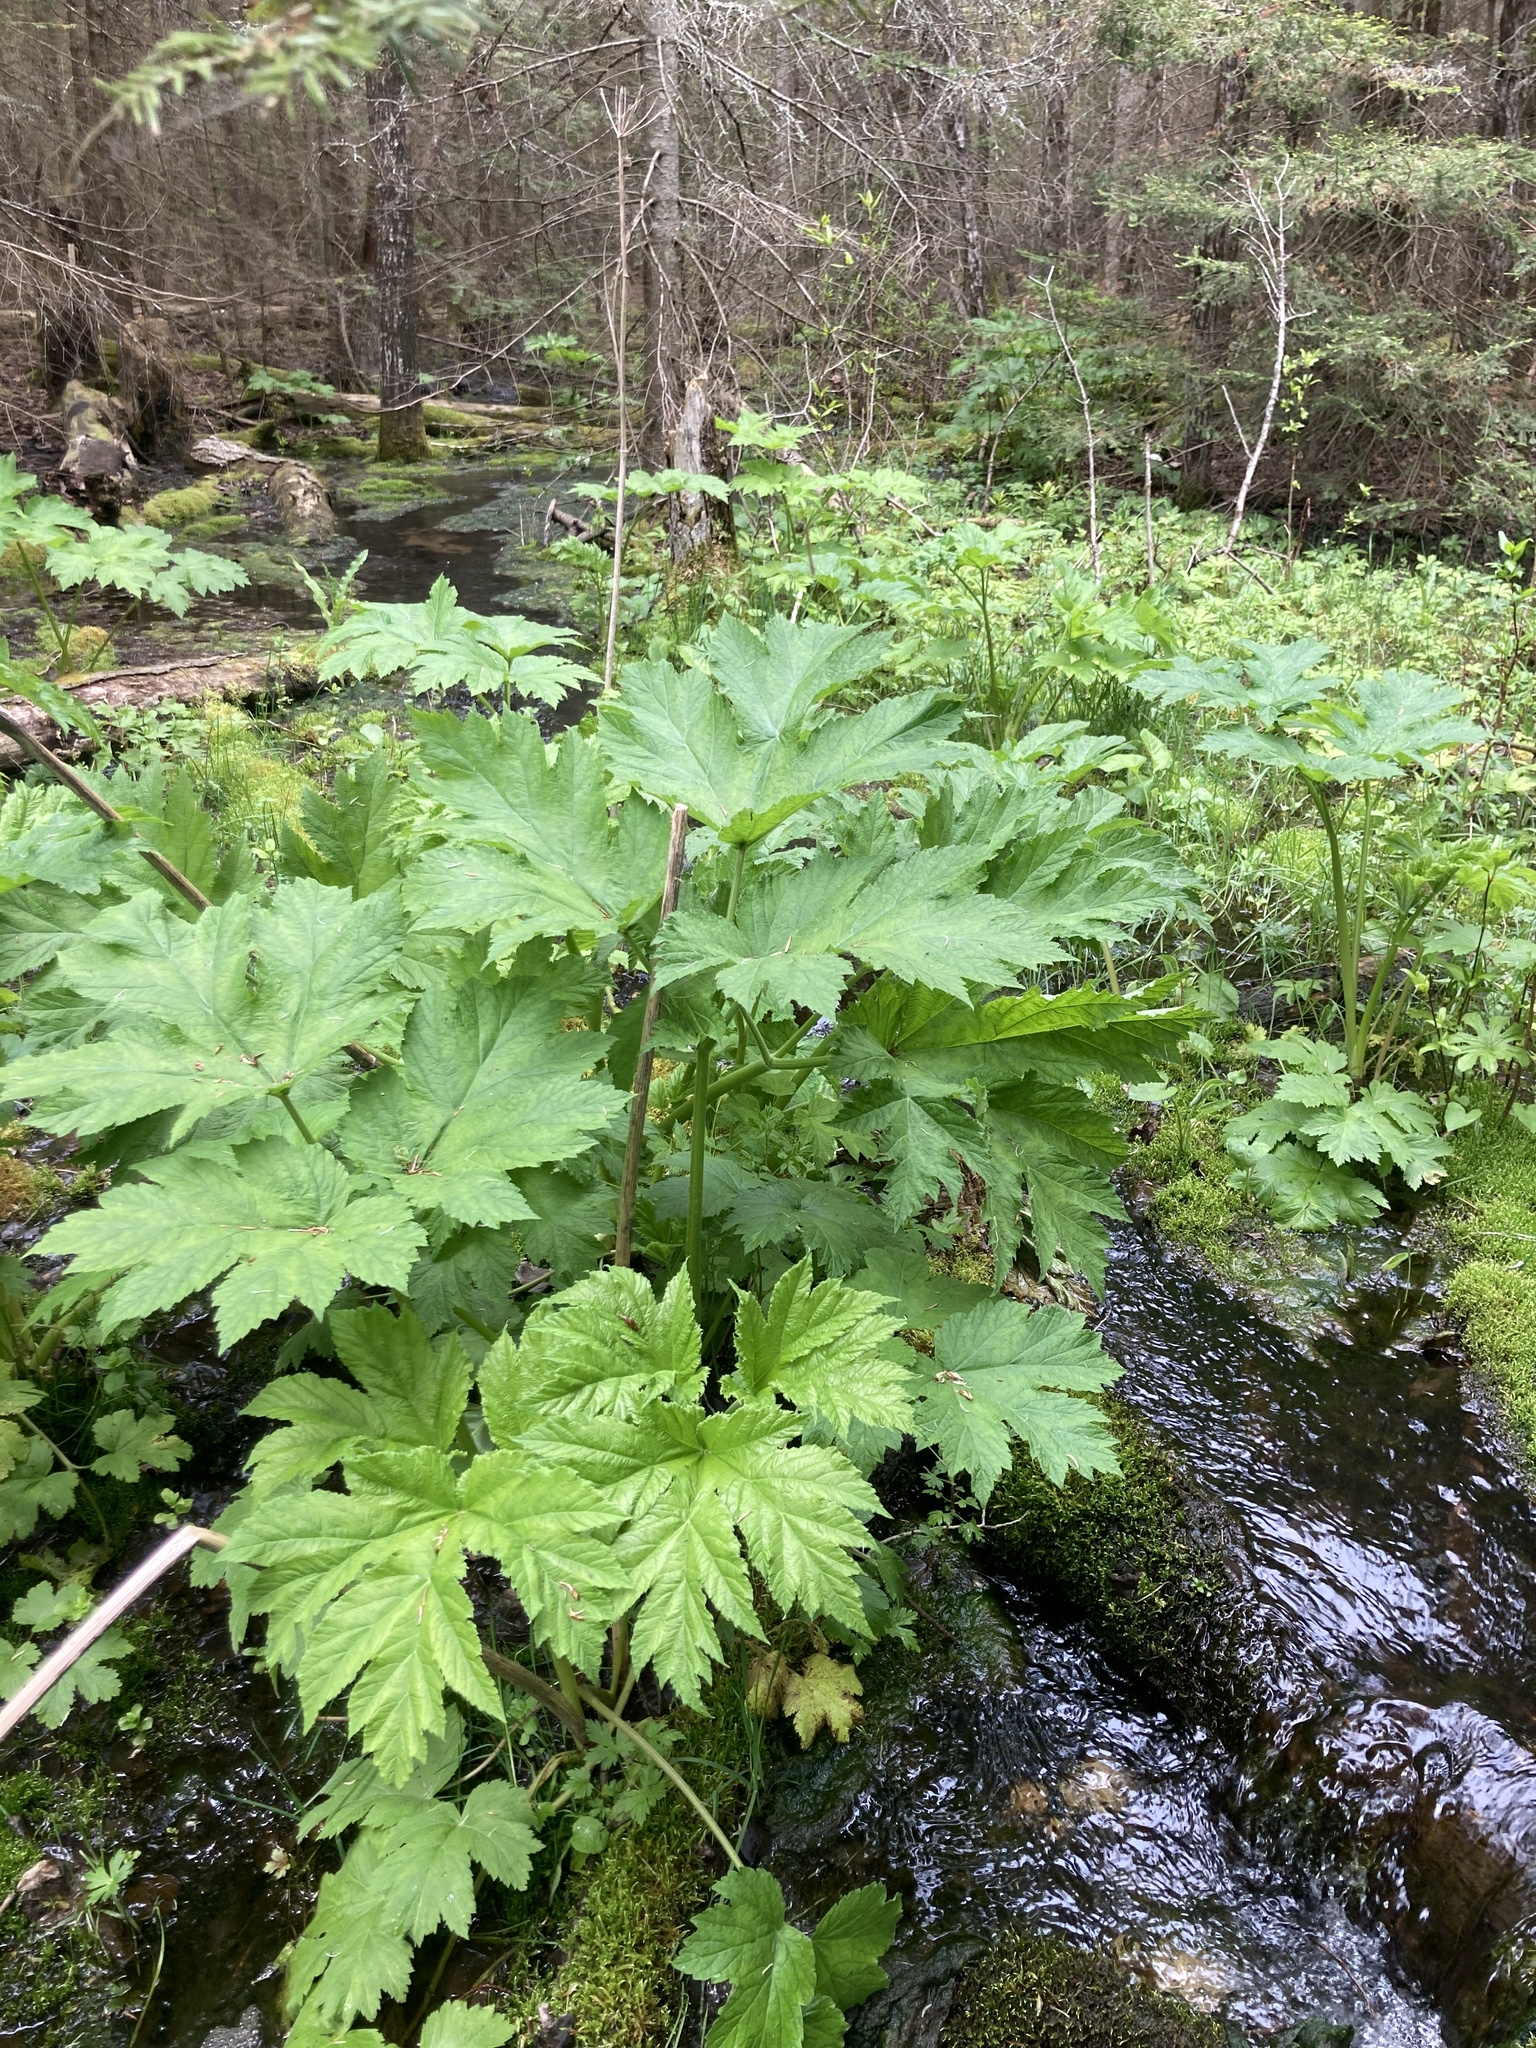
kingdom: Plantae
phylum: Tracheophyta
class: Magnoliopsida
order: Apiales
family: Apiaceae
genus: Heracleum
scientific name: Heracleum maximum
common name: American cow parsnip
